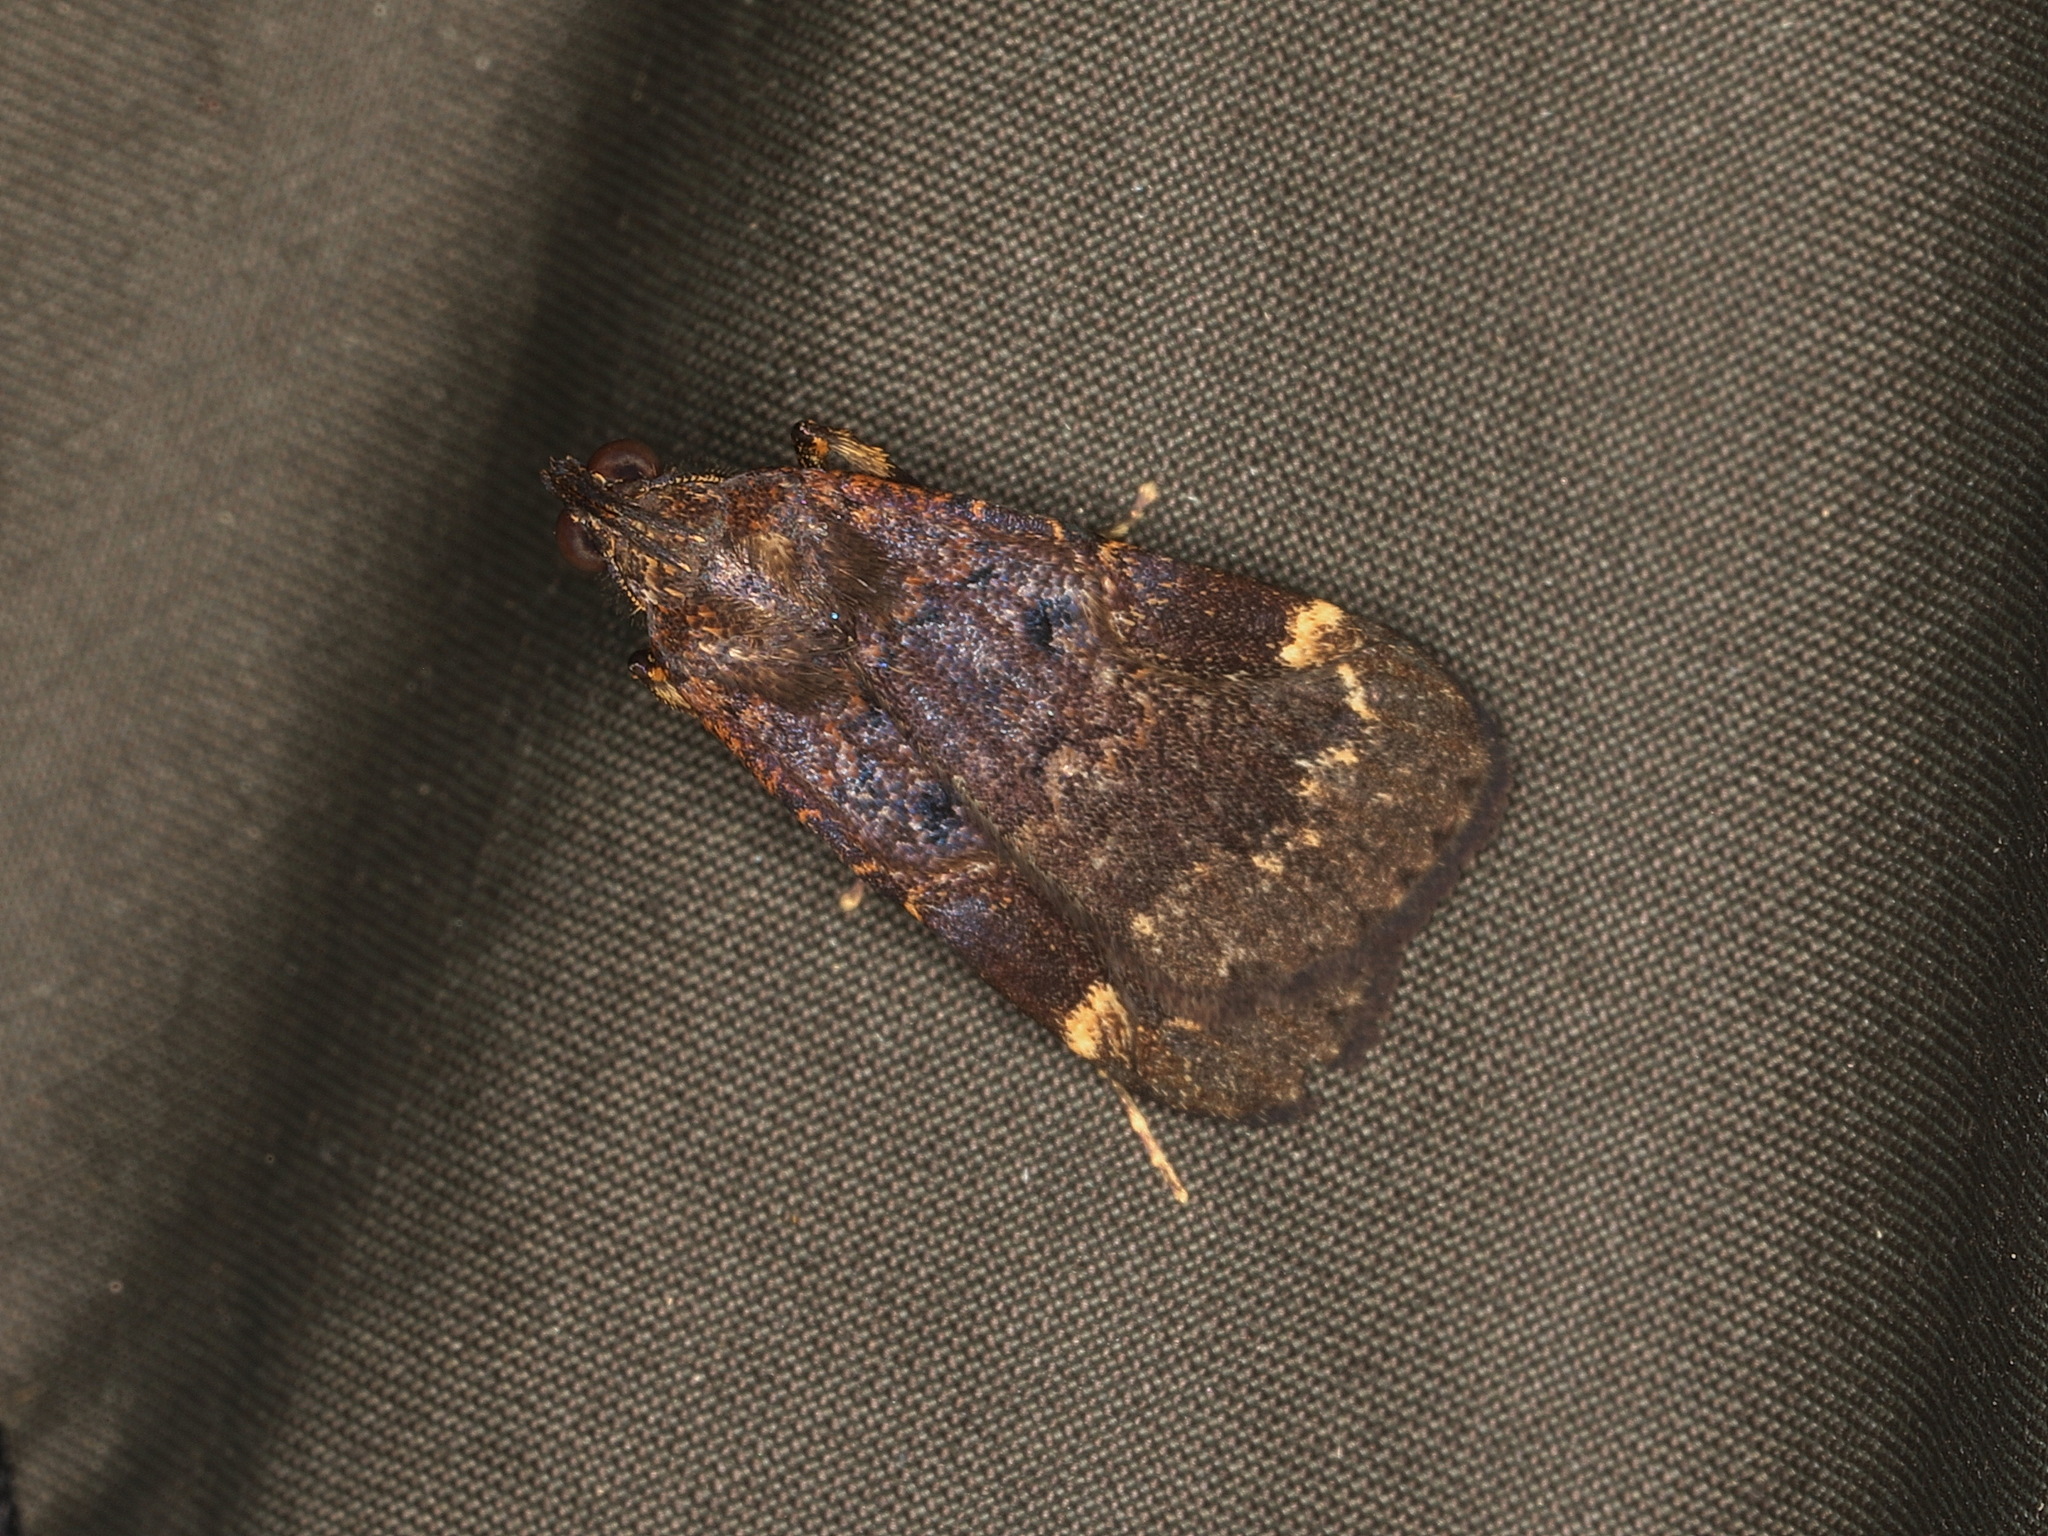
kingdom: Animalia
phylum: Arthropoda
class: Insecta
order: Lepidoptera
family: Erebidae
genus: Hydrillodes
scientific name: Hydrillodes funestalis
